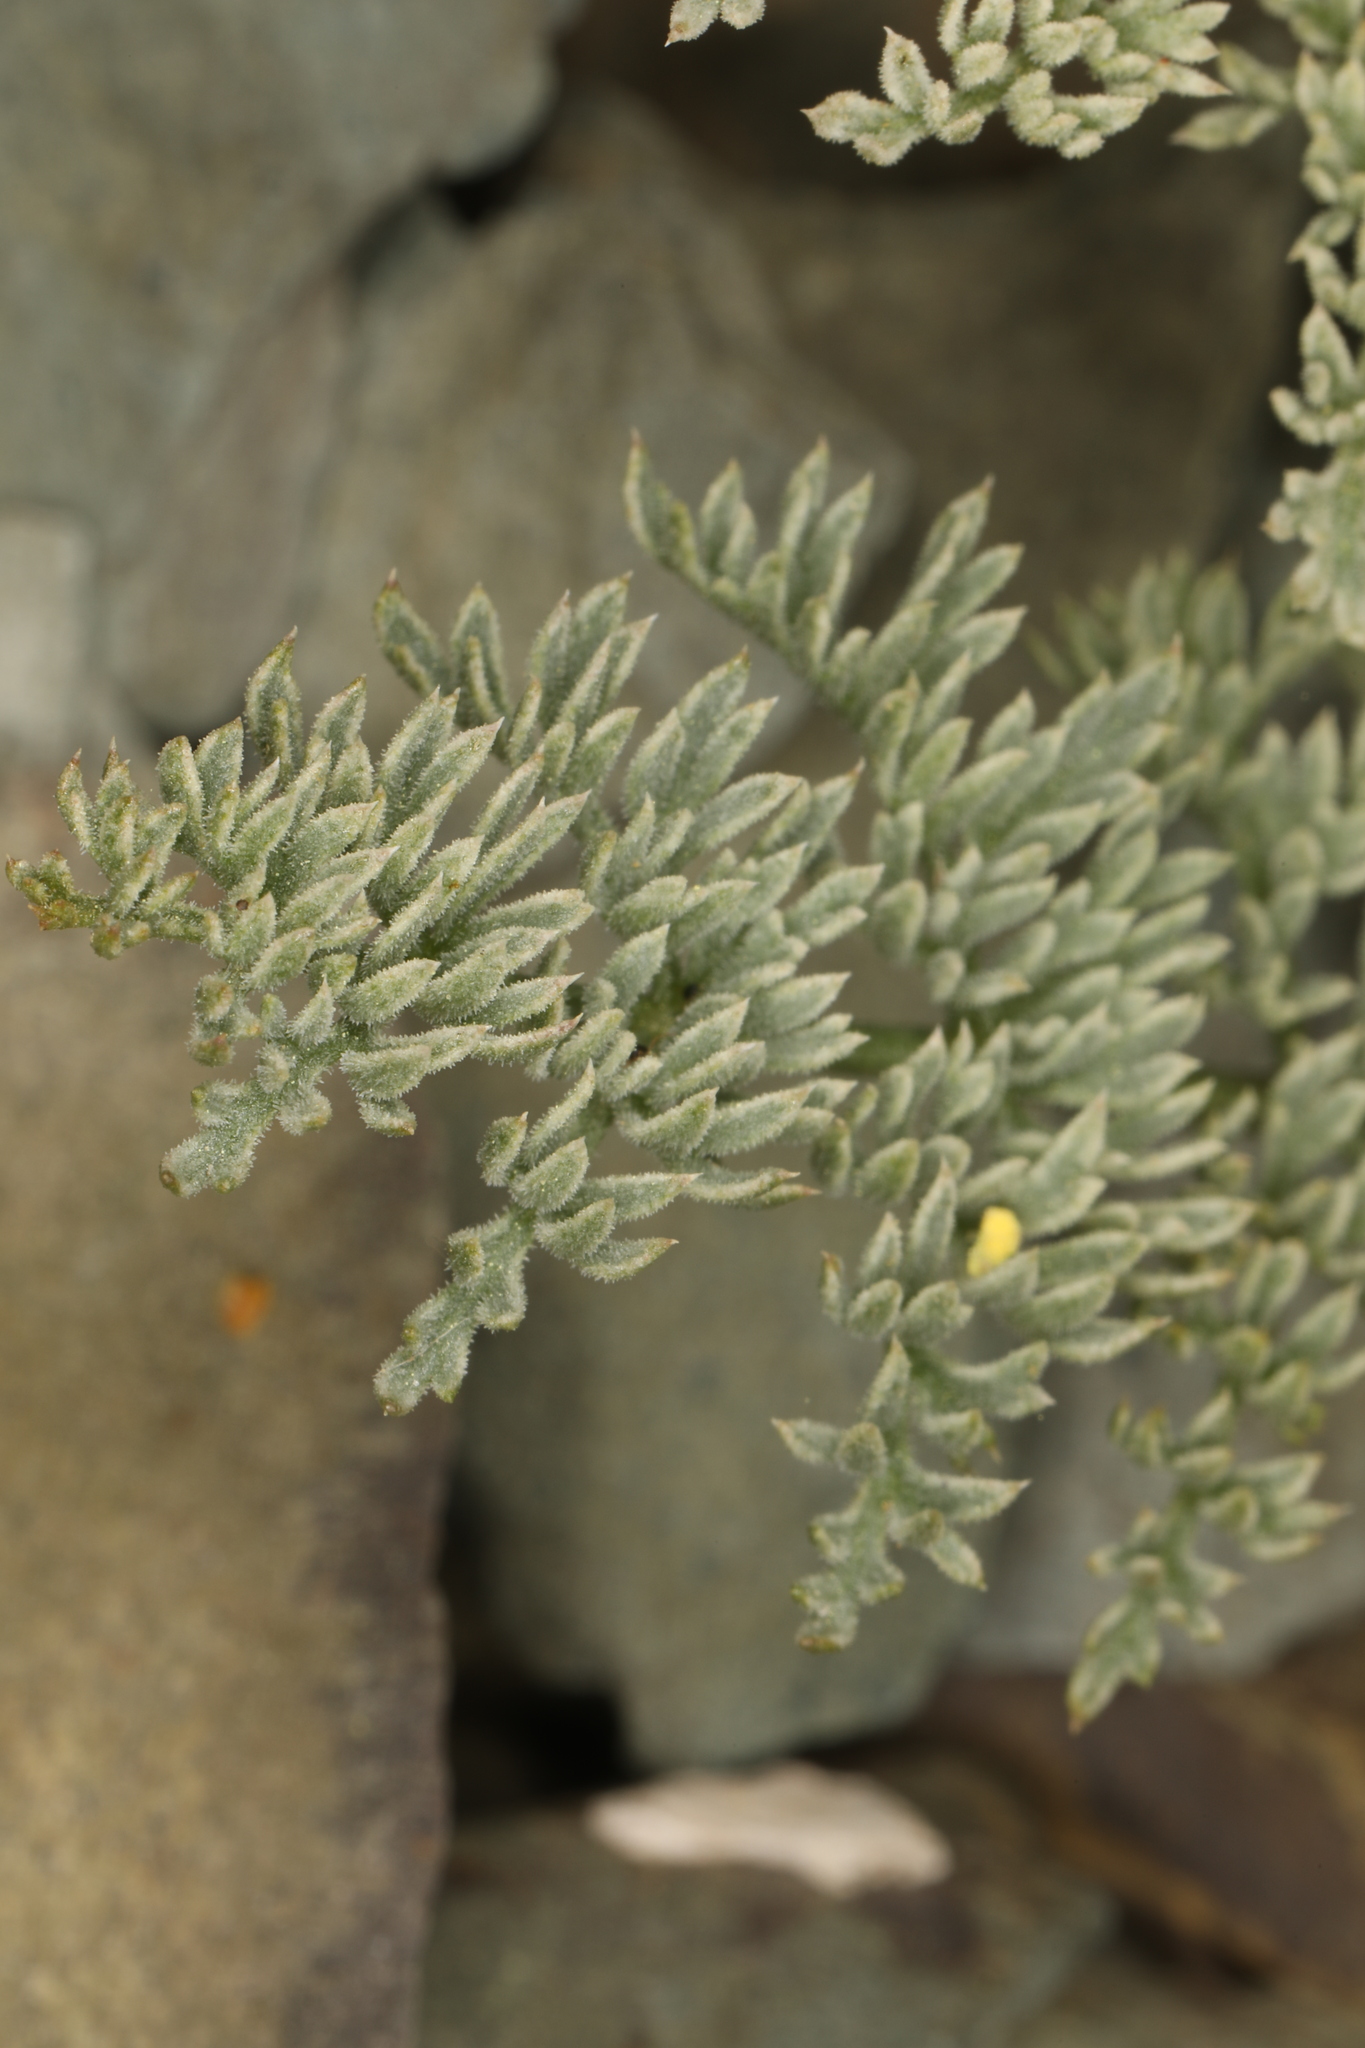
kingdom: Plantae
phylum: Tracheophyta
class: Magnoliopsida
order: Apiales
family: Apiaceae
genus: Aulospermum
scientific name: Aulospermum aboriginum
